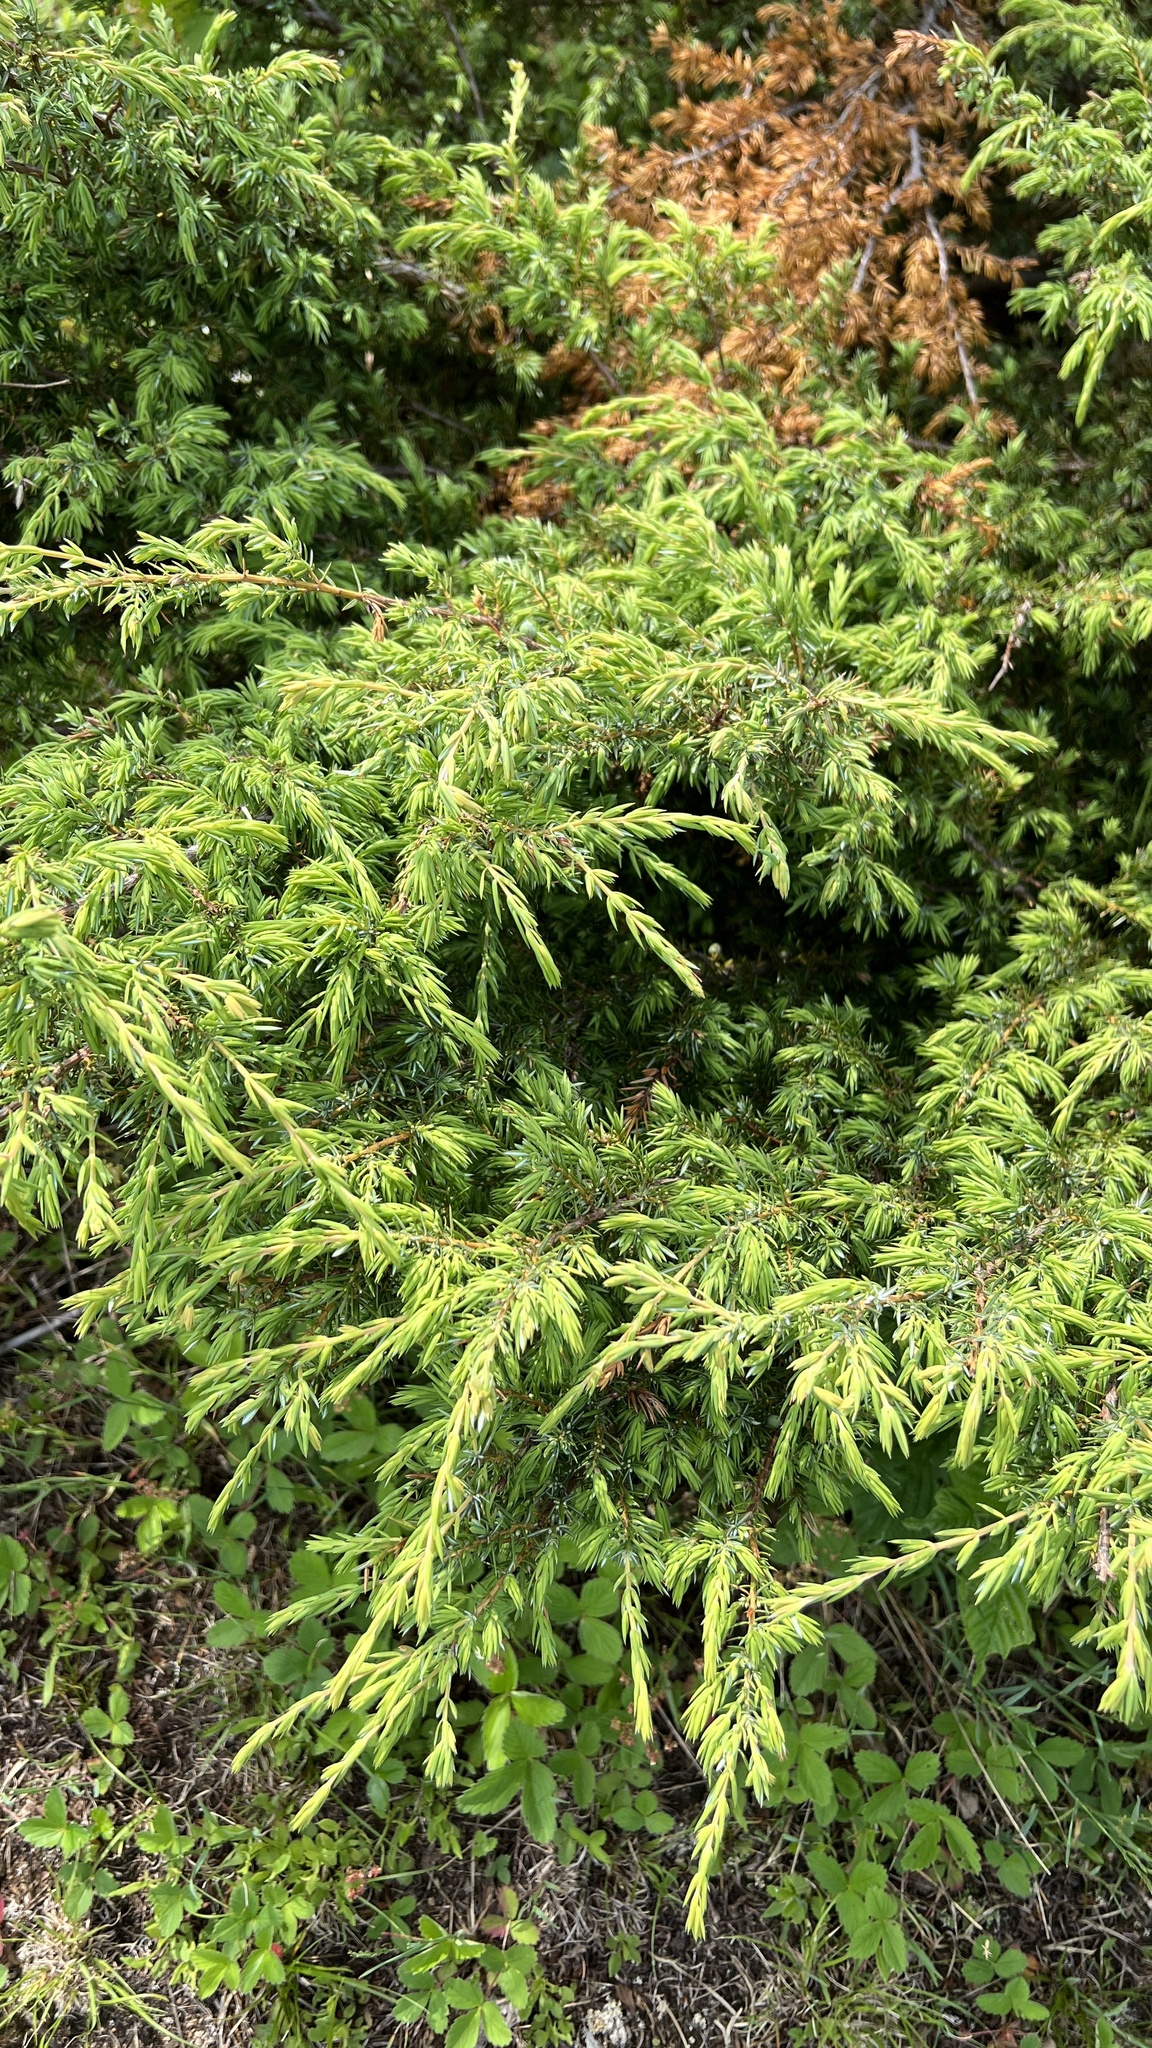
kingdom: Plantae
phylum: Tracheophyta
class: Pinopsida
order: Pinales
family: Cupressaceae
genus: Juniperus
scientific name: Juniperus communis
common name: Common juniper
